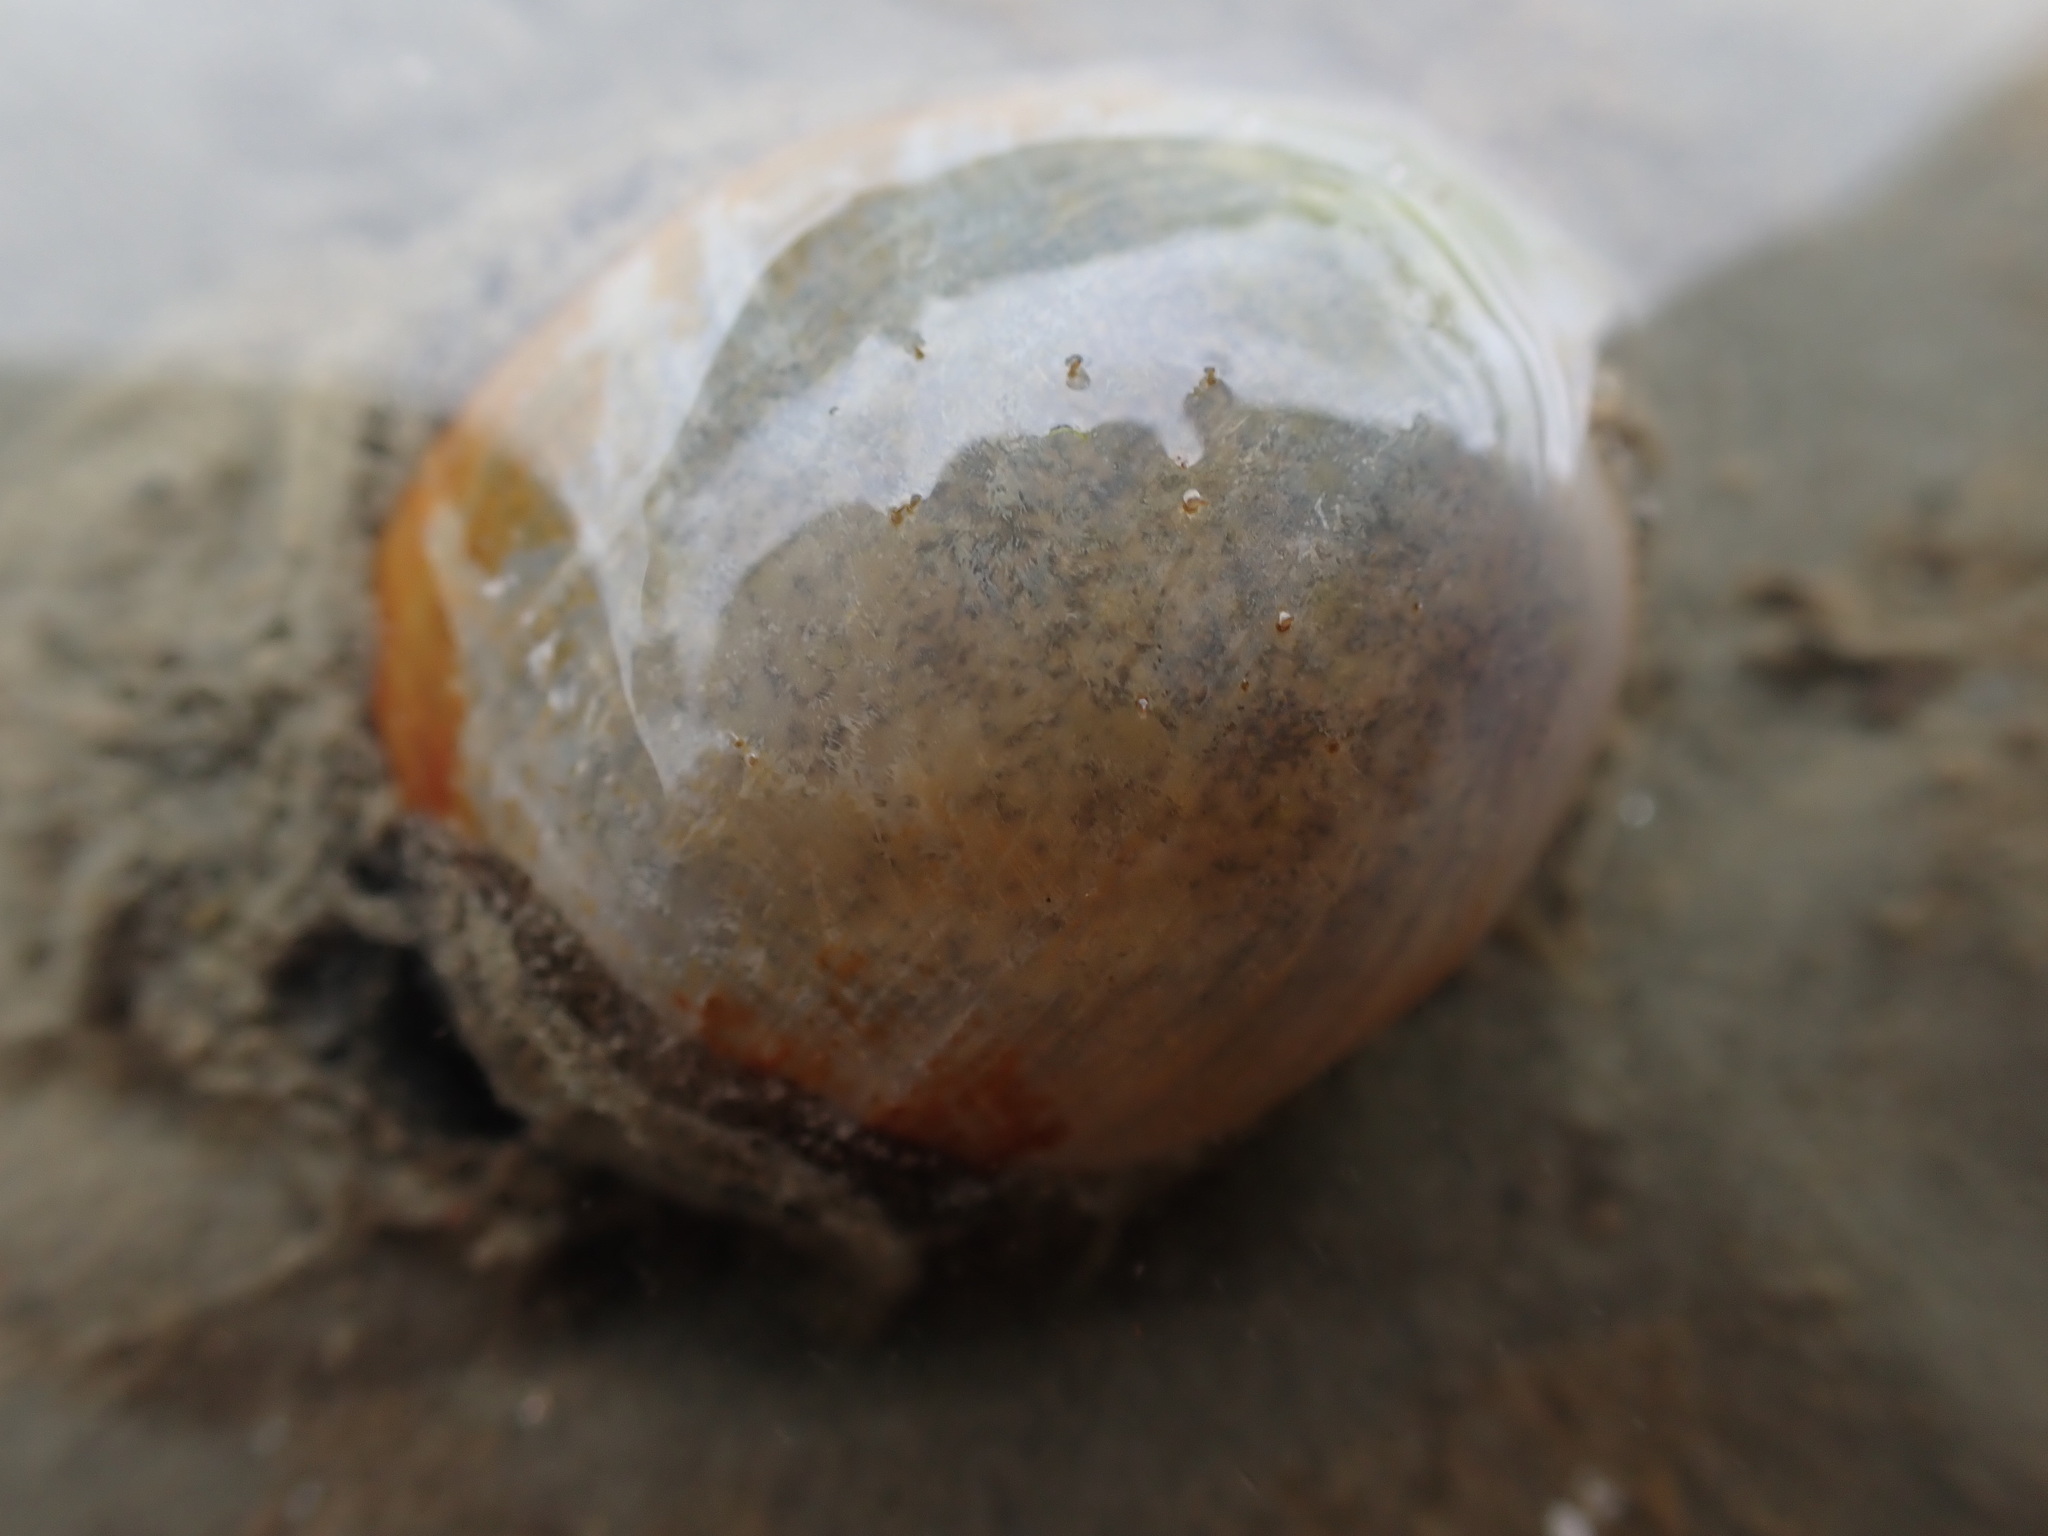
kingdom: Animalia
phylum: Mollusca
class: Gastropoda
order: Cephalaspidea
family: Haminoeidae
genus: Papawera
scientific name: Papawera zelandiae
